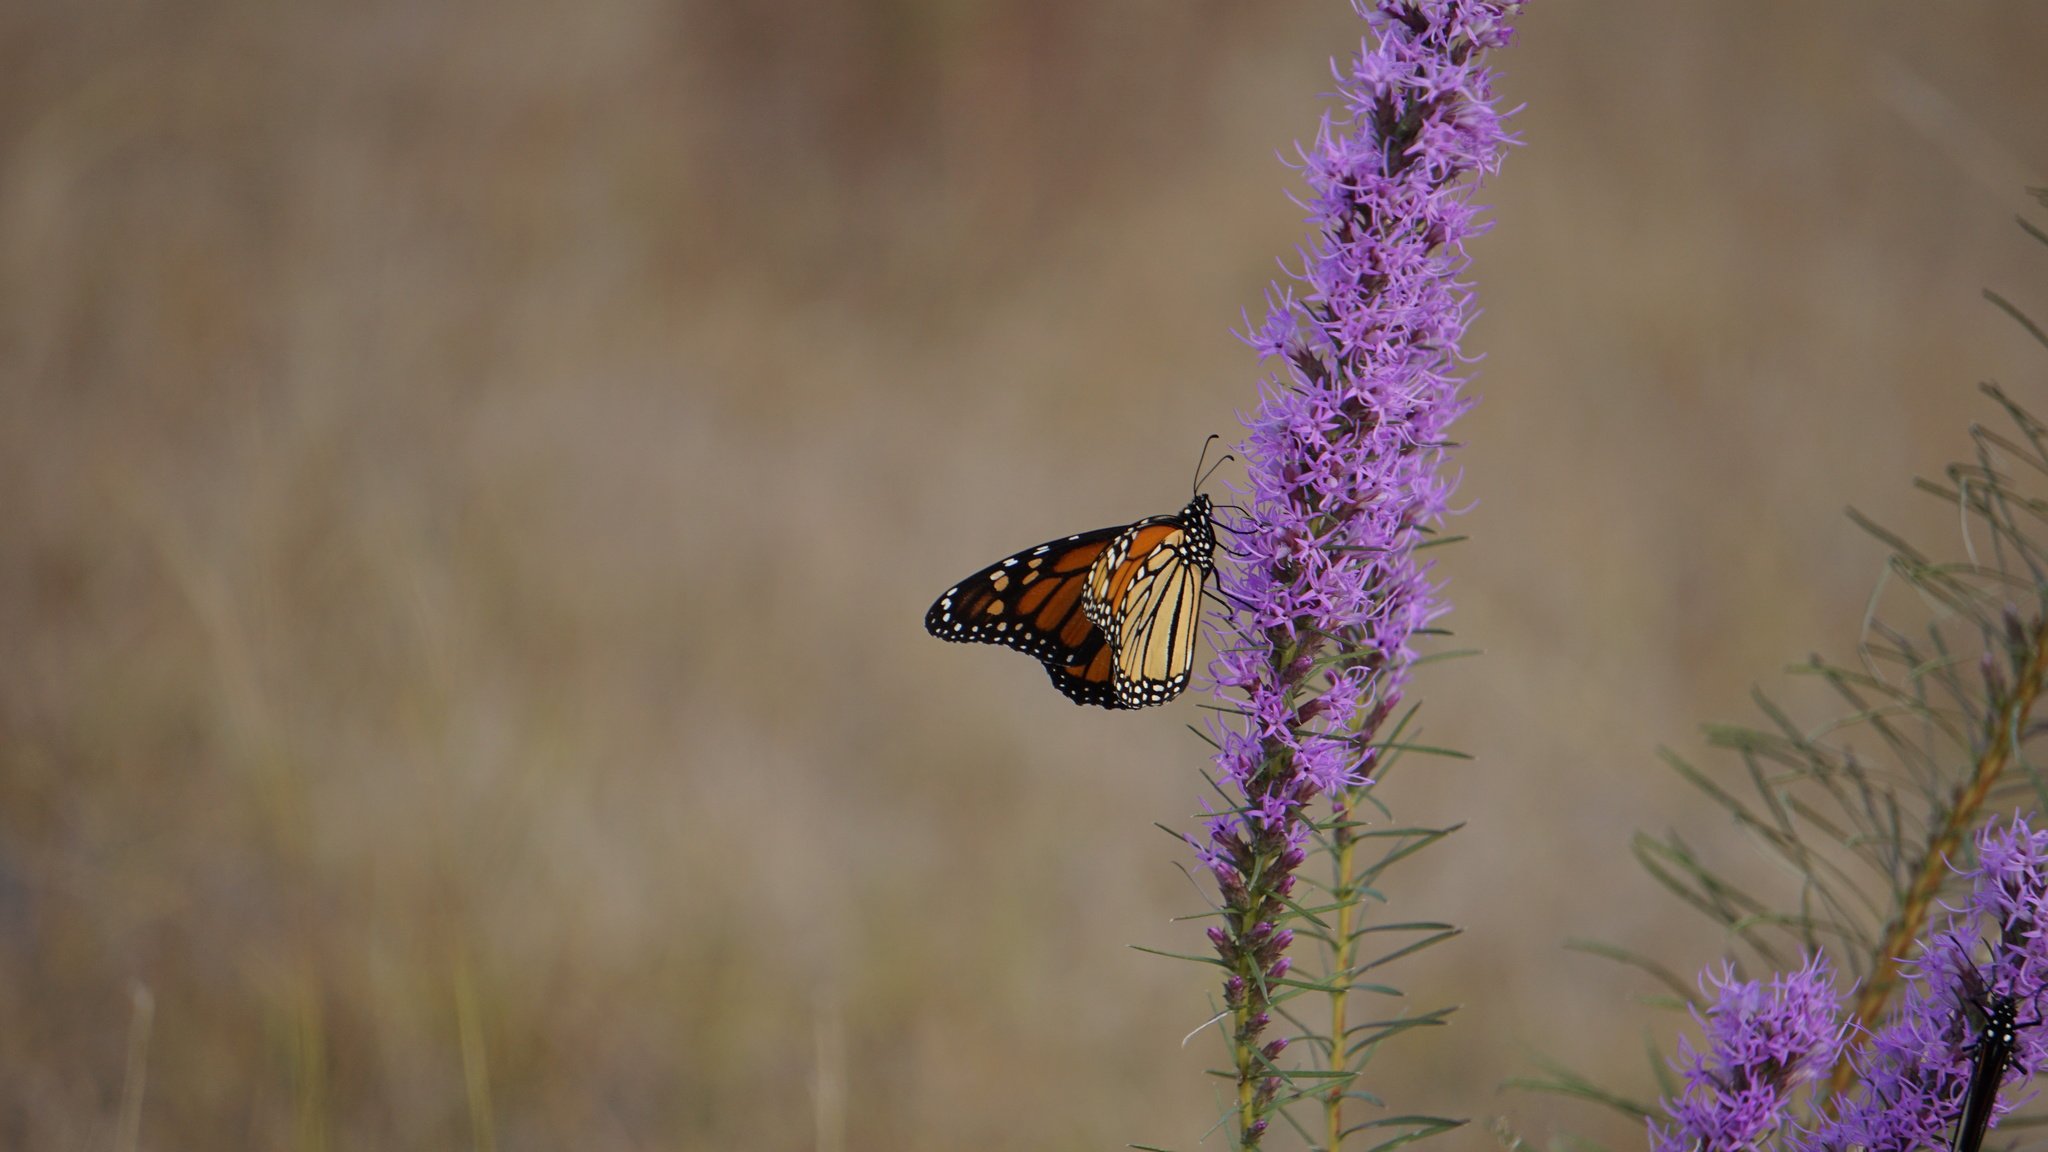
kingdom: Animalia
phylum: Arthropoda
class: Insecta
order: Lepidoptera
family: Nymphalidae
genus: Danaus
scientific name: Danaus plexippus
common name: Monarch
